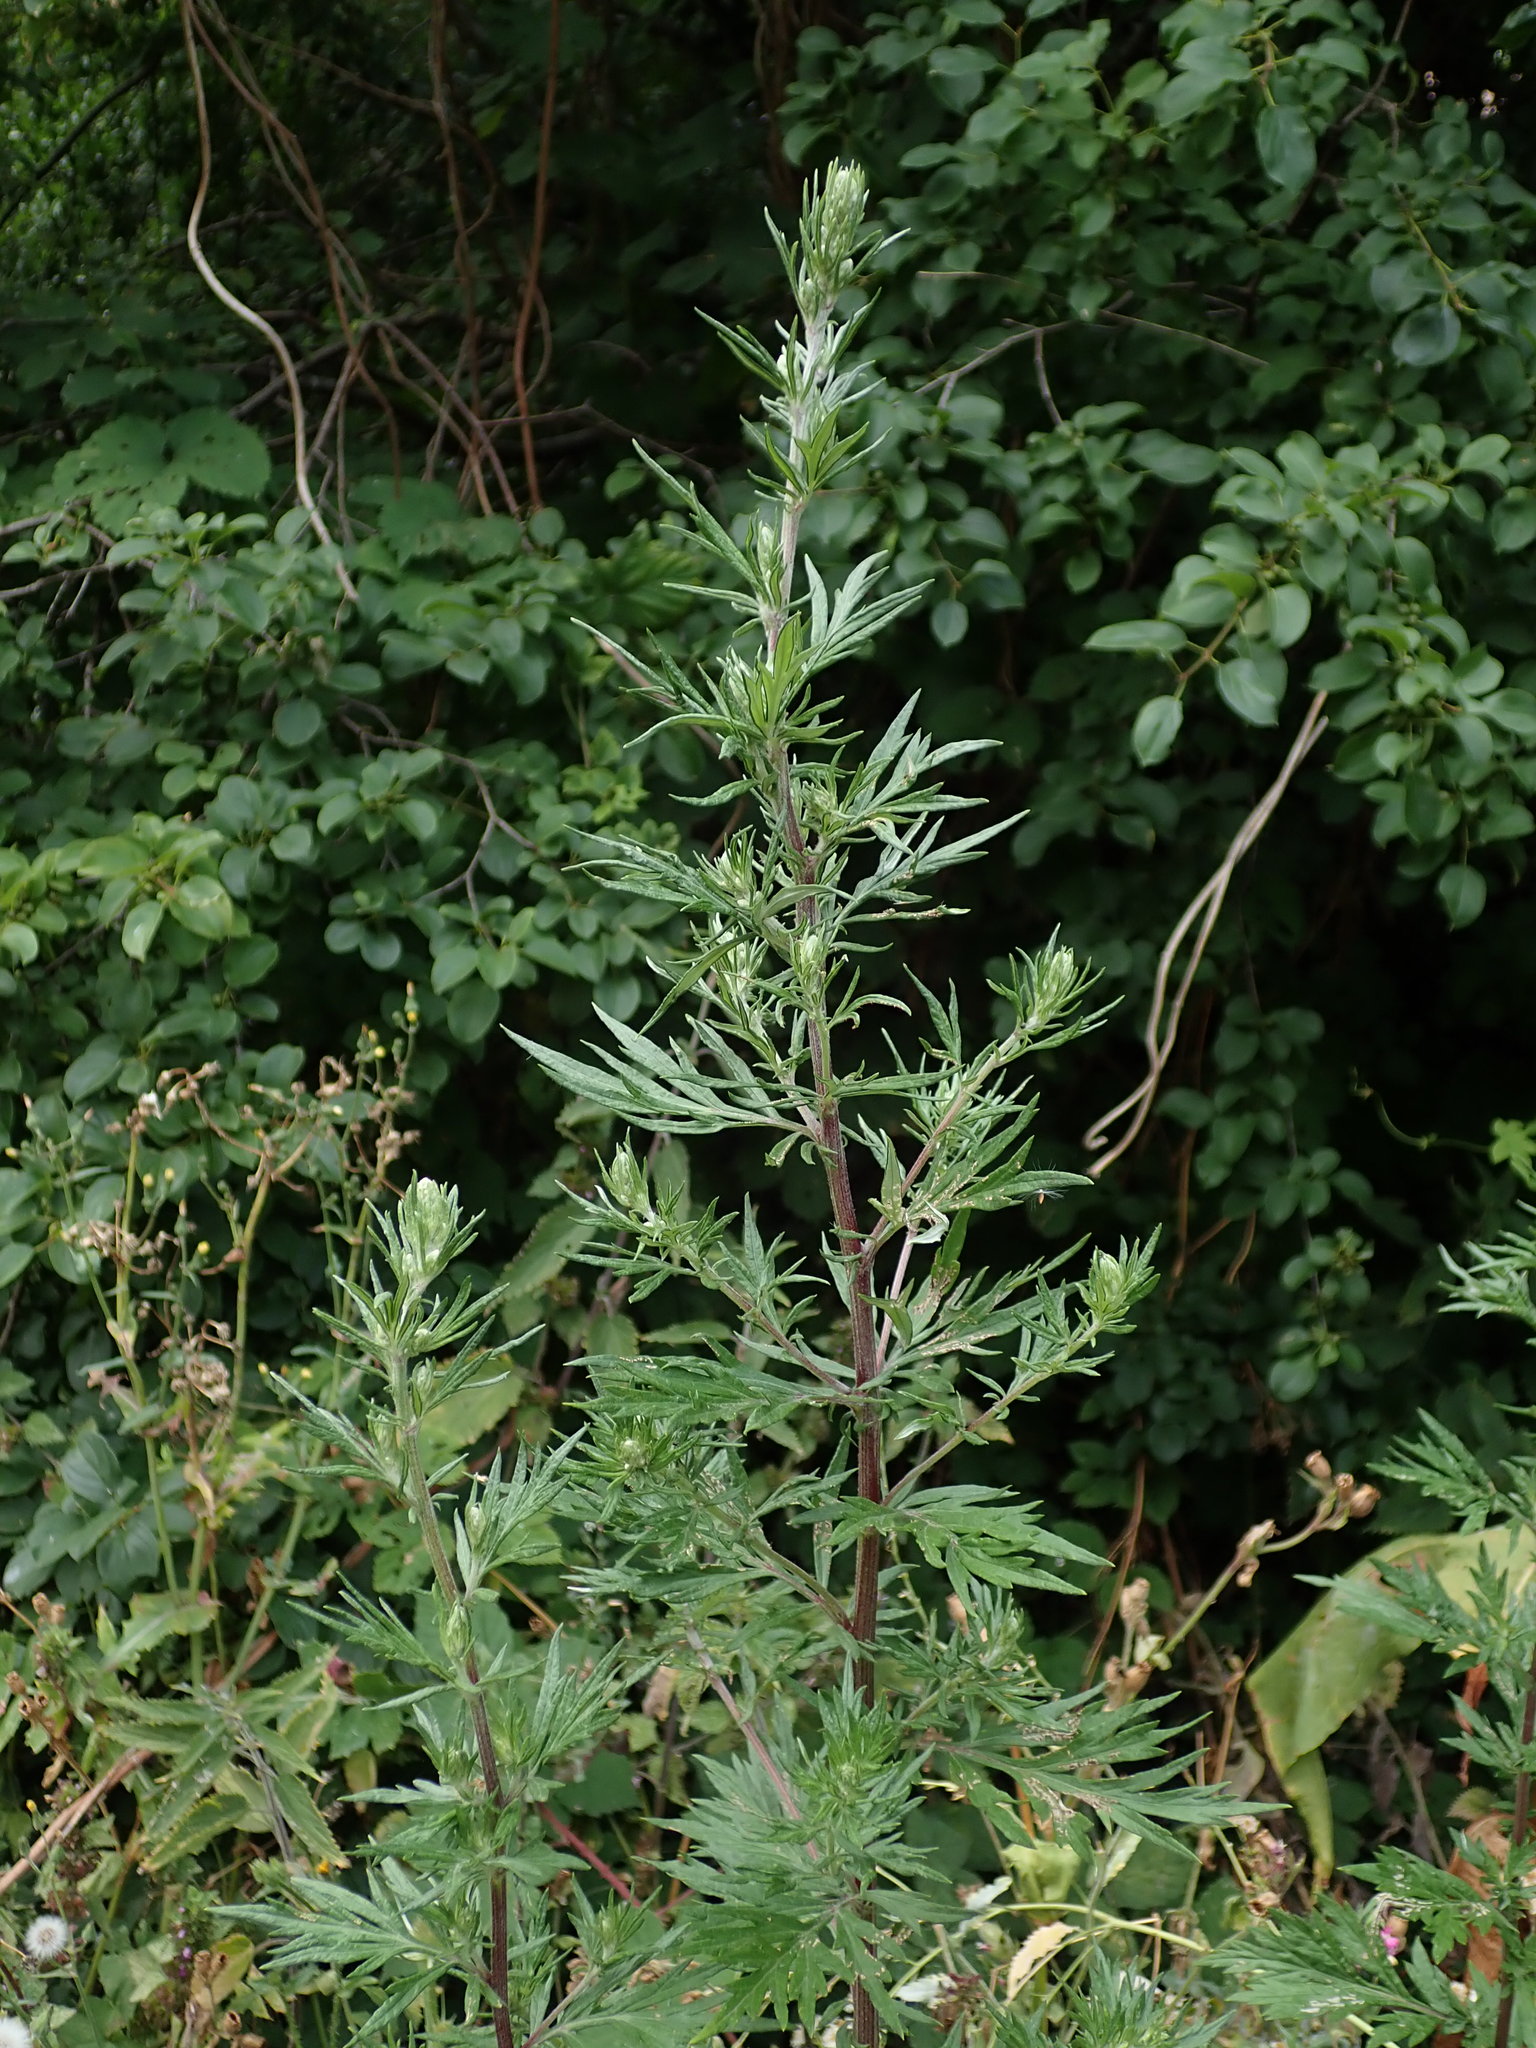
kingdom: Plantae
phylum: Tracheophyta
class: Magnoliopsida
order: Asterales
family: Asteraceae
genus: Artemisia
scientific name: Artemisia vulgaris
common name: Mugwort
